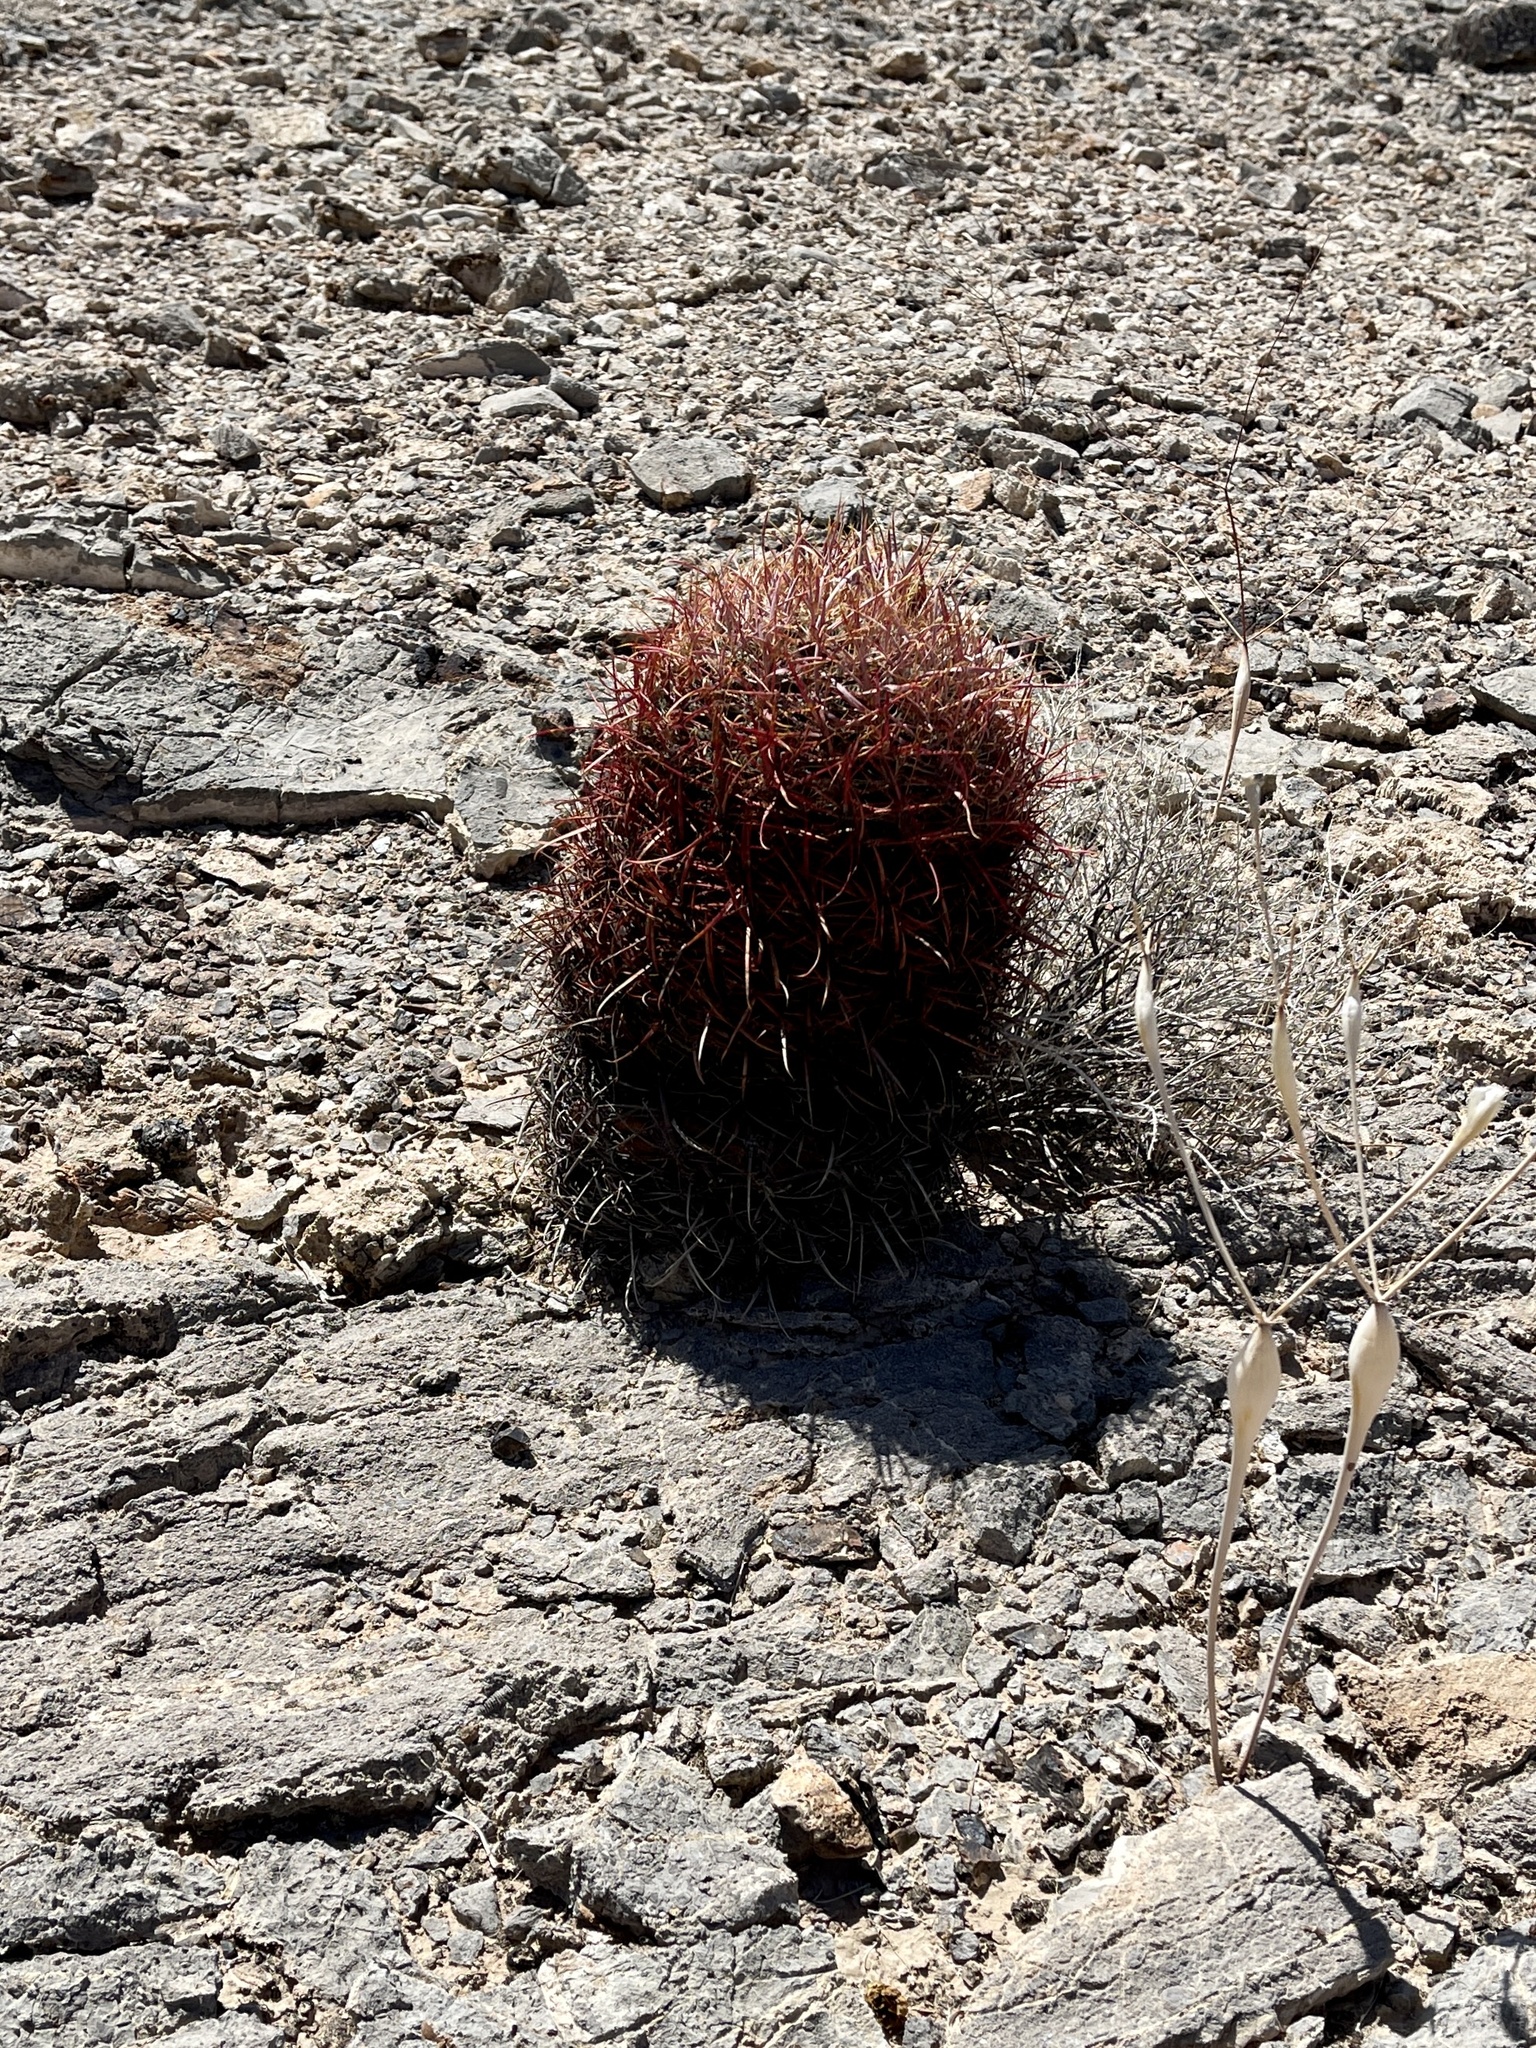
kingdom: Plantae
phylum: Tracheophyta
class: Magnoliopsida
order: Caryophyllales
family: Cactaceae
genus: Ferocactus
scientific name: Ferocactus cylindraceus
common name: California barrel cactus
